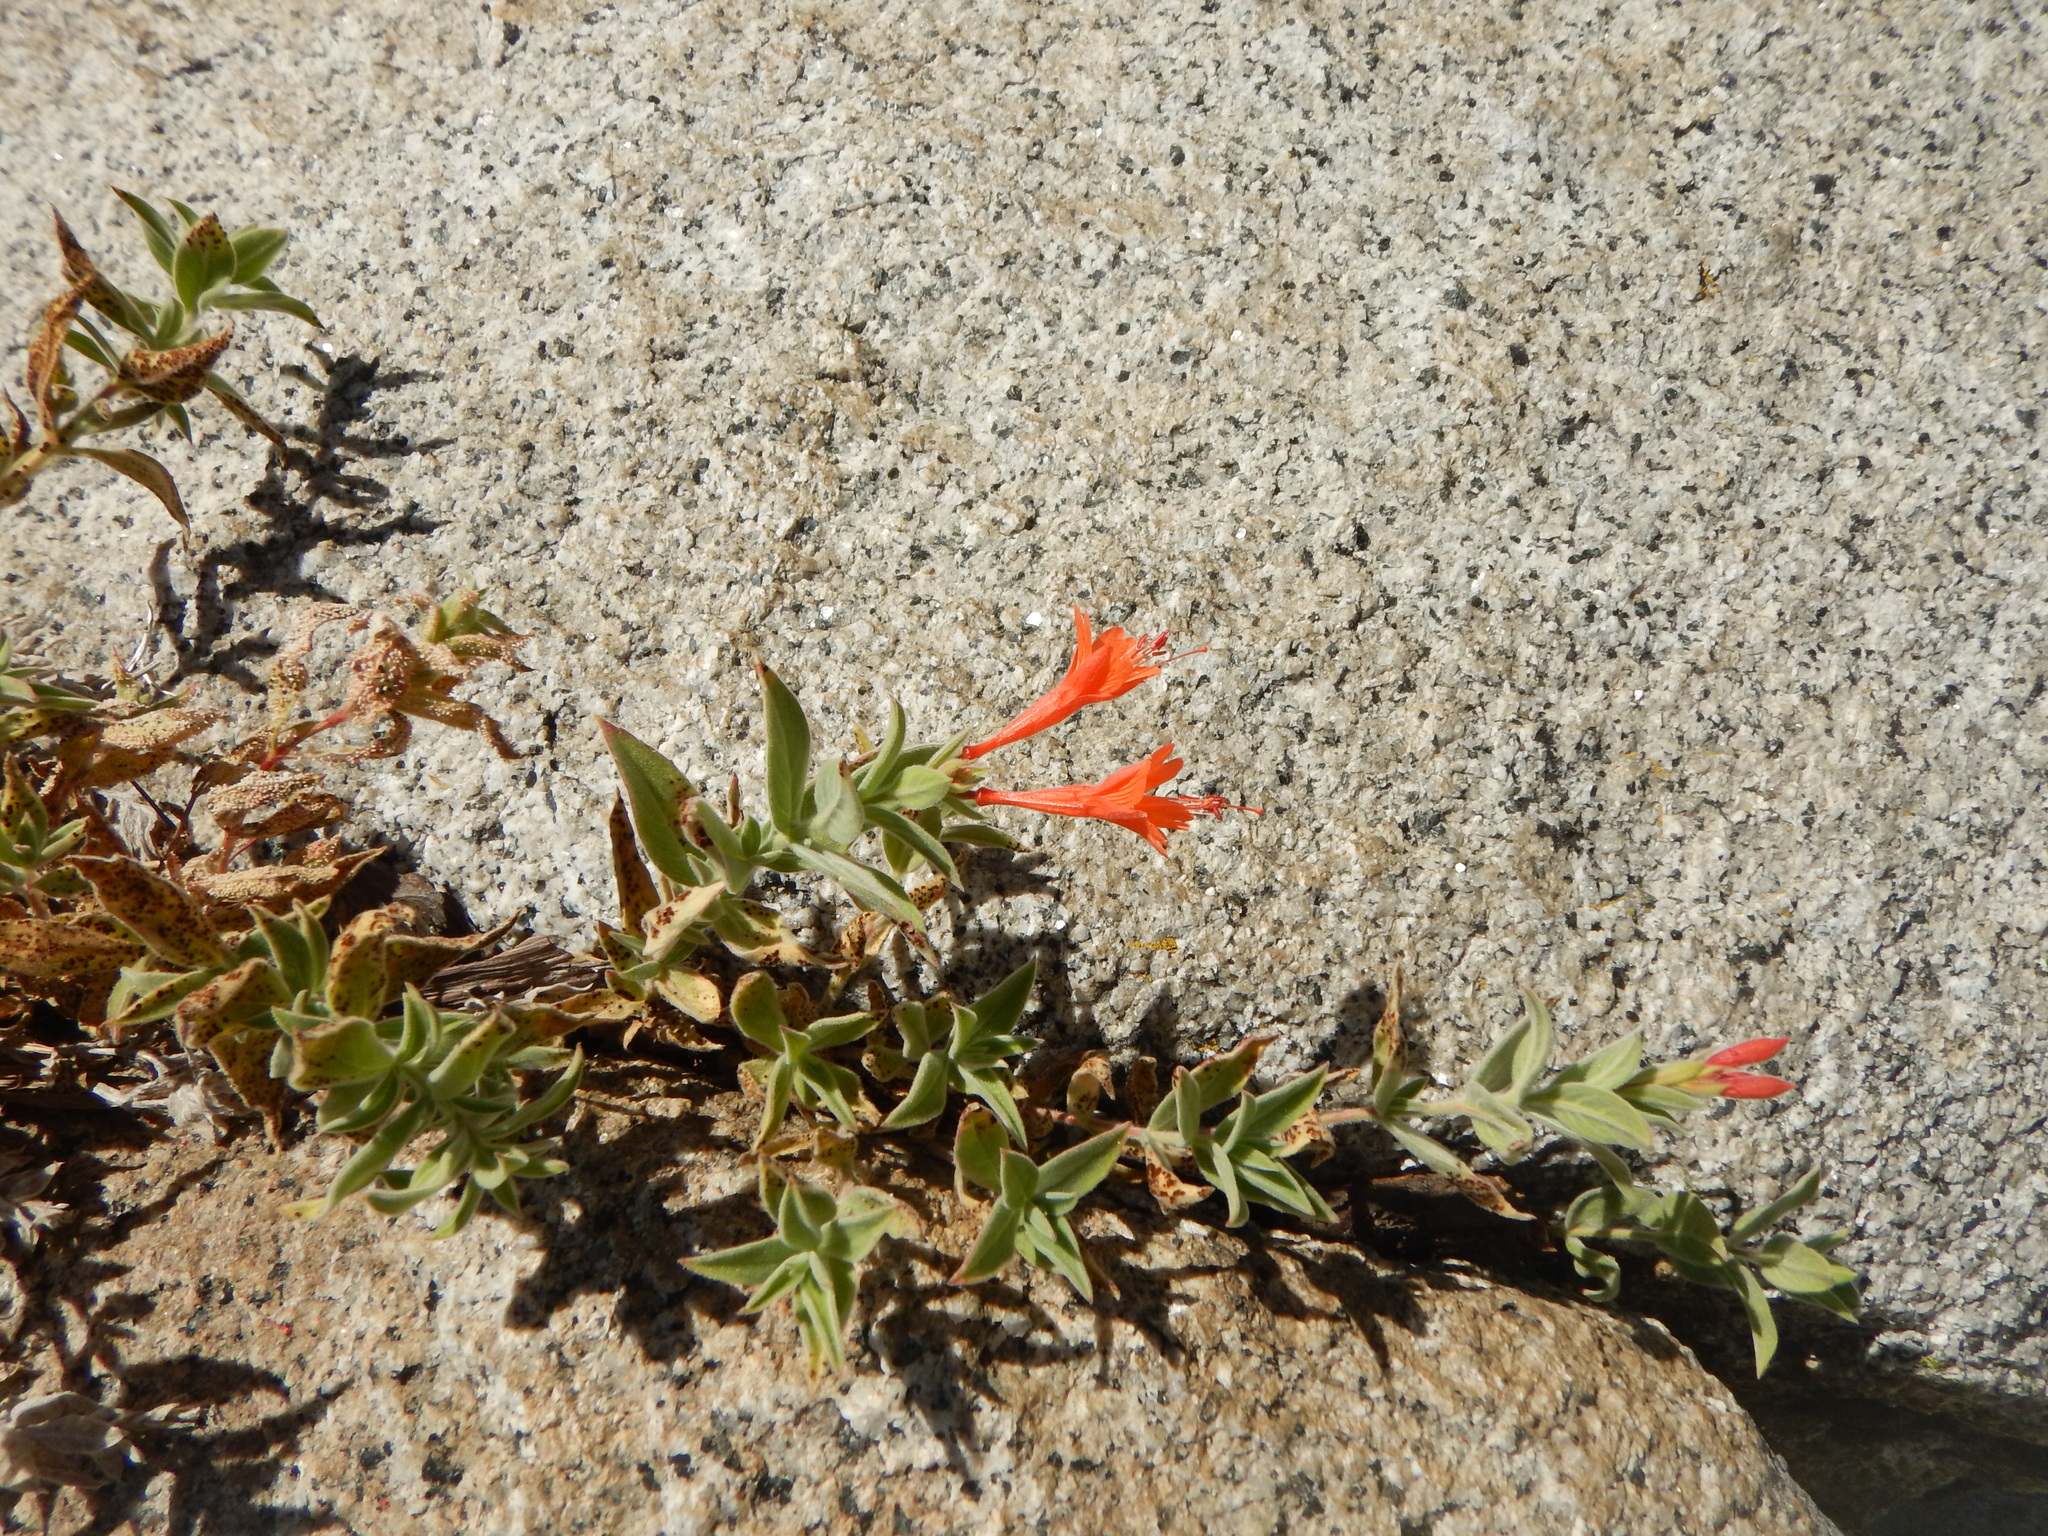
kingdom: Plantae
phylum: Tracheophyta
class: Magnoliopsida
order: Myrtales
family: Onagraceae
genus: Epilobium
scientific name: Epilobium canum
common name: California-fuchsia
